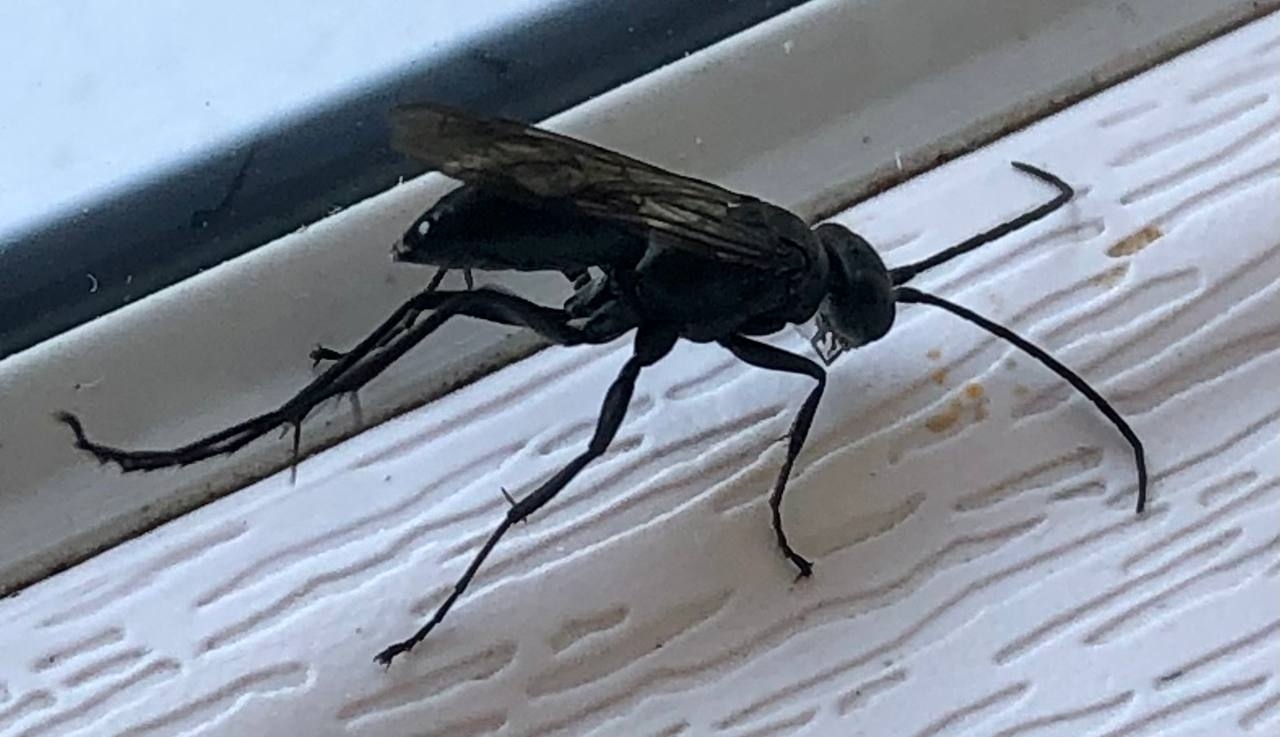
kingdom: Animalia
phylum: Arthropoda
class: Insecta
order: Hymenoptera
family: Pompilidae
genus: Auplopus
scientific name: Auplopus carbonarius
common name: Spider wasp
